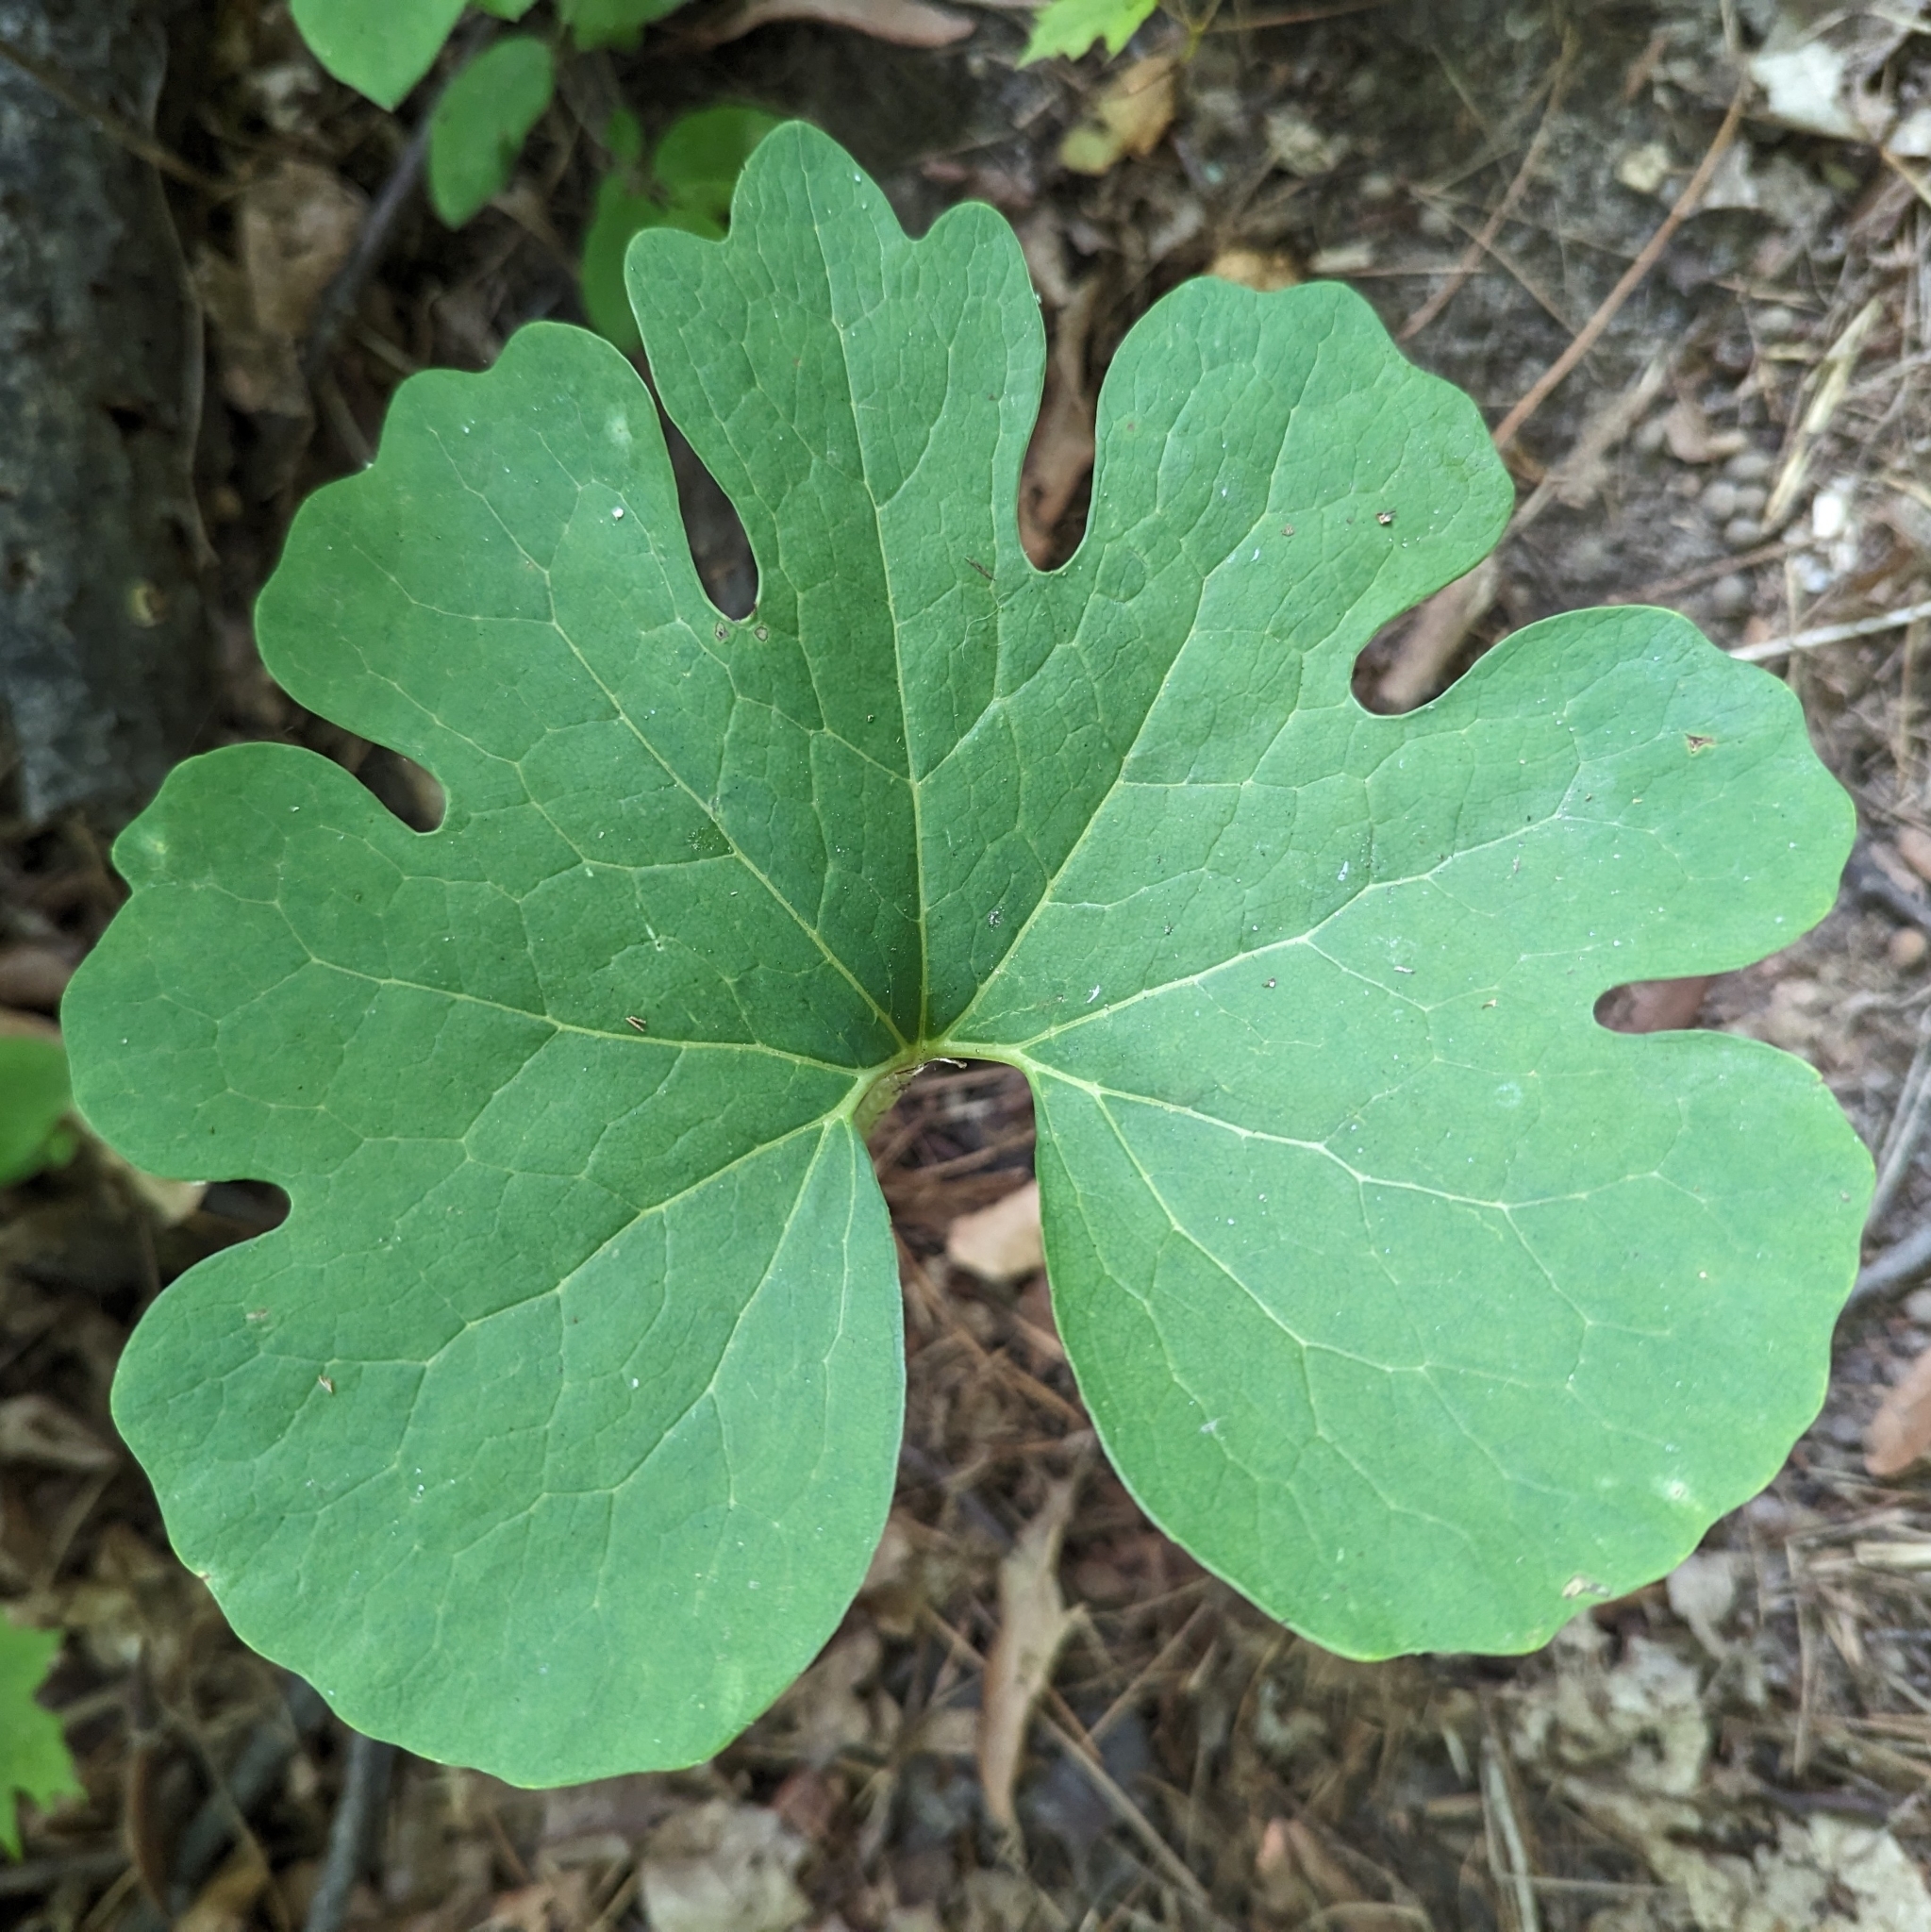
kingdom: Plantae
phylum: Tracheophyta
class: Magnoliopsida
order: Ranunculales
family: Papaveraceae
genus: Sanguinaria
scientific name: Sanguinaria canadensis
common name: Bloodroot
